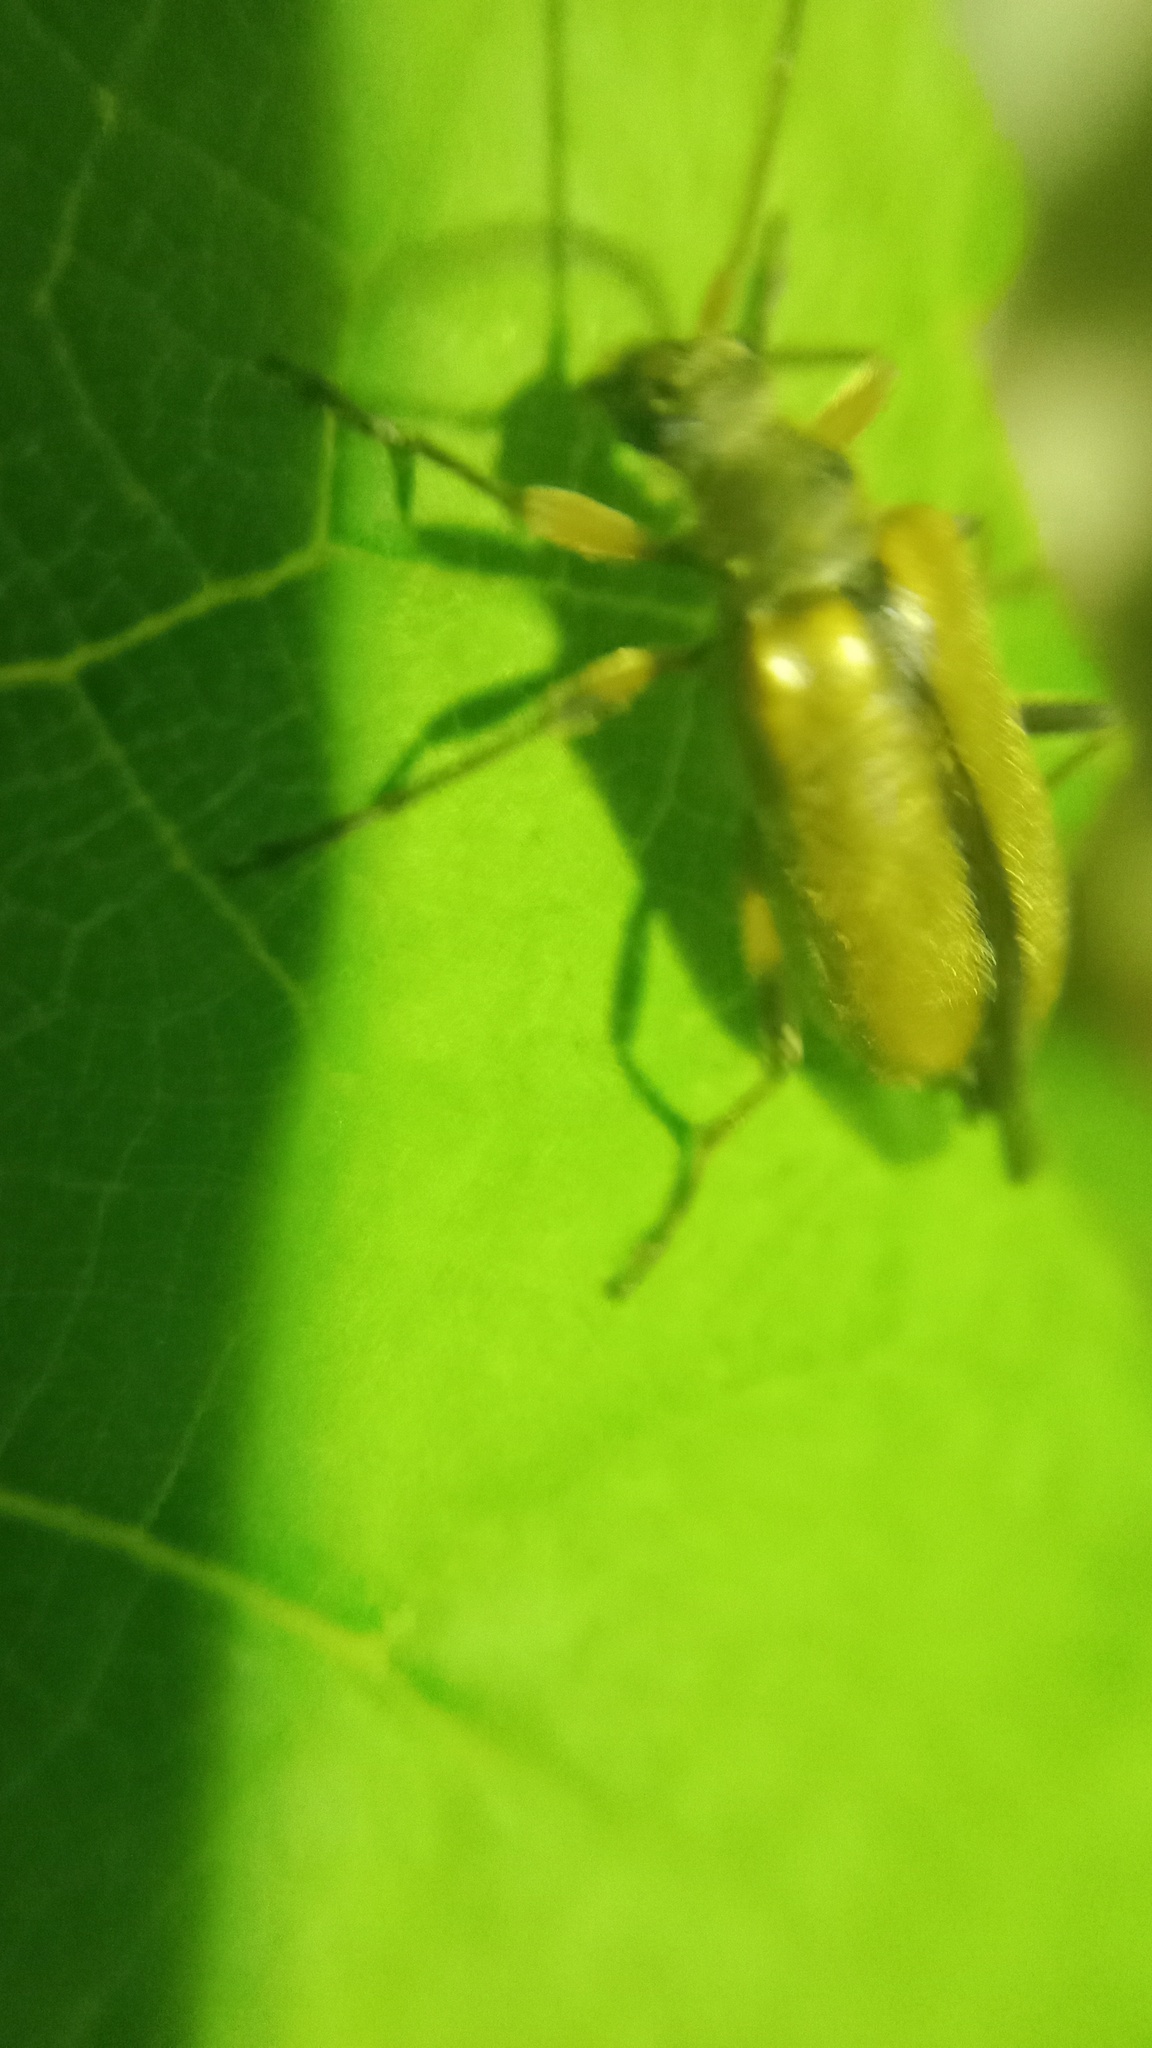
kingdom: Animalia
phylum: Arthropoda
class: Insecta
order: Coleoptera
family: Cerambycidae
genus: Cortodera
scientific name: Cortodera humeralis
